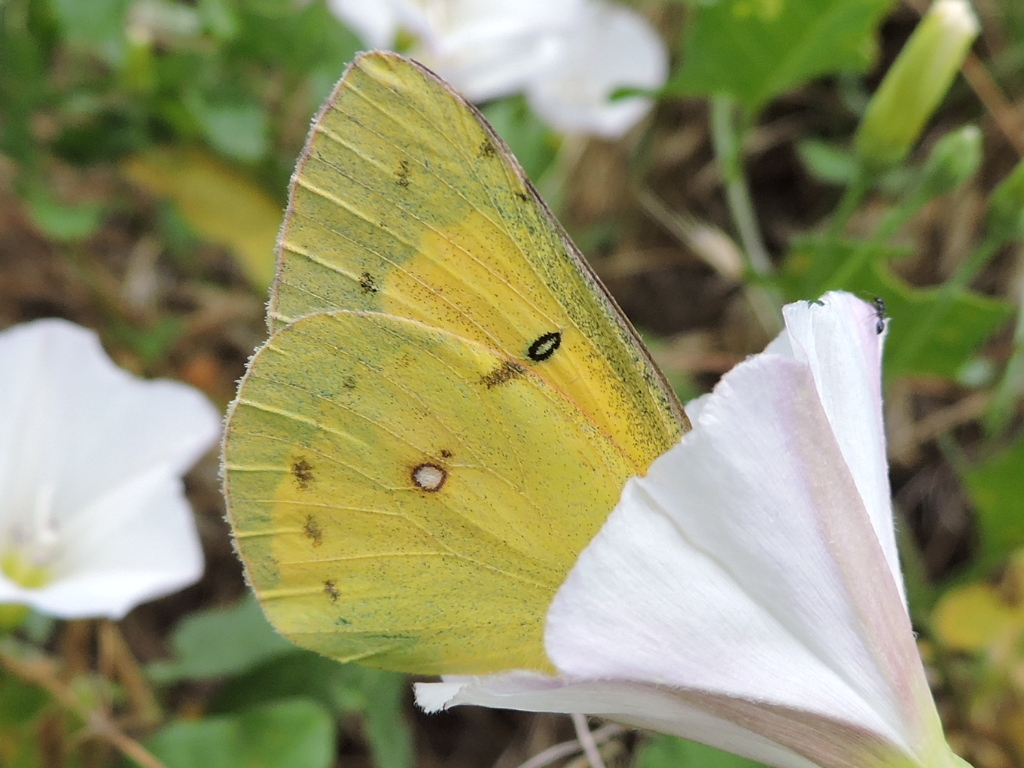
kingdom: Animalia
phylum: Arthropoda
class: Insecta
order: Lepidoptera
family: Pieridae
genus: Colias
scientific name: Colias eurytheme
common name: Alfalfa butterfly
